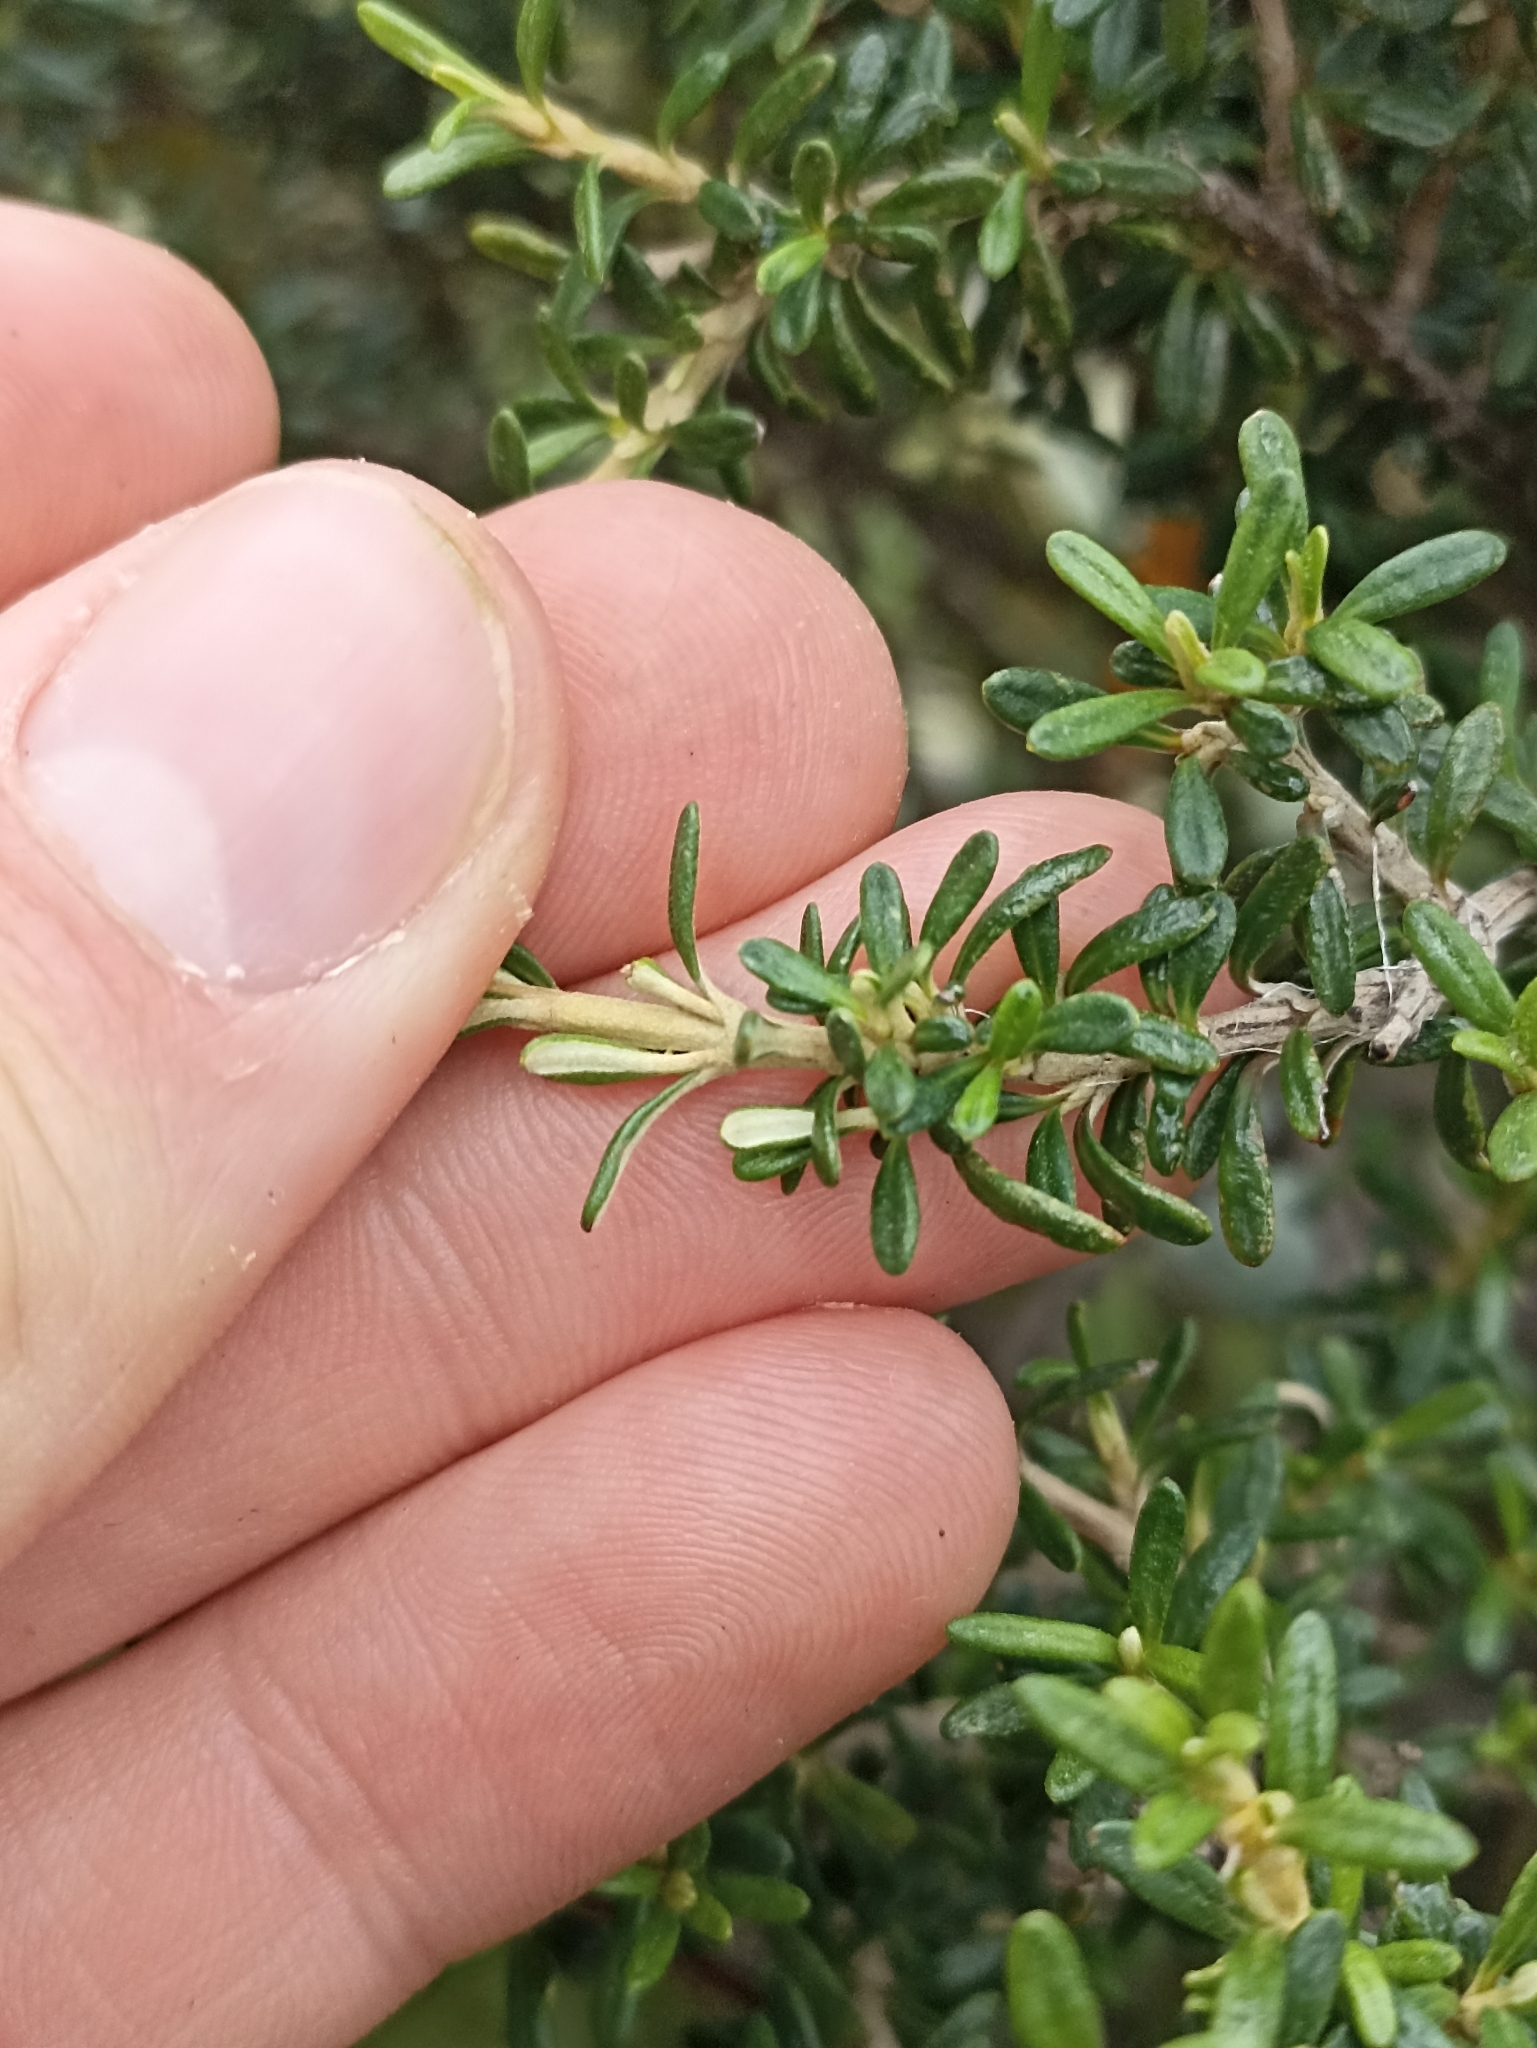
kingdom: Plantae
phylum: Tracheophyta
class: Magnoliopsida
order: Asterales
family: Asteraceae
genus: Olearia
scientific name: Olearia solandri
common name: Coastal daisybush
